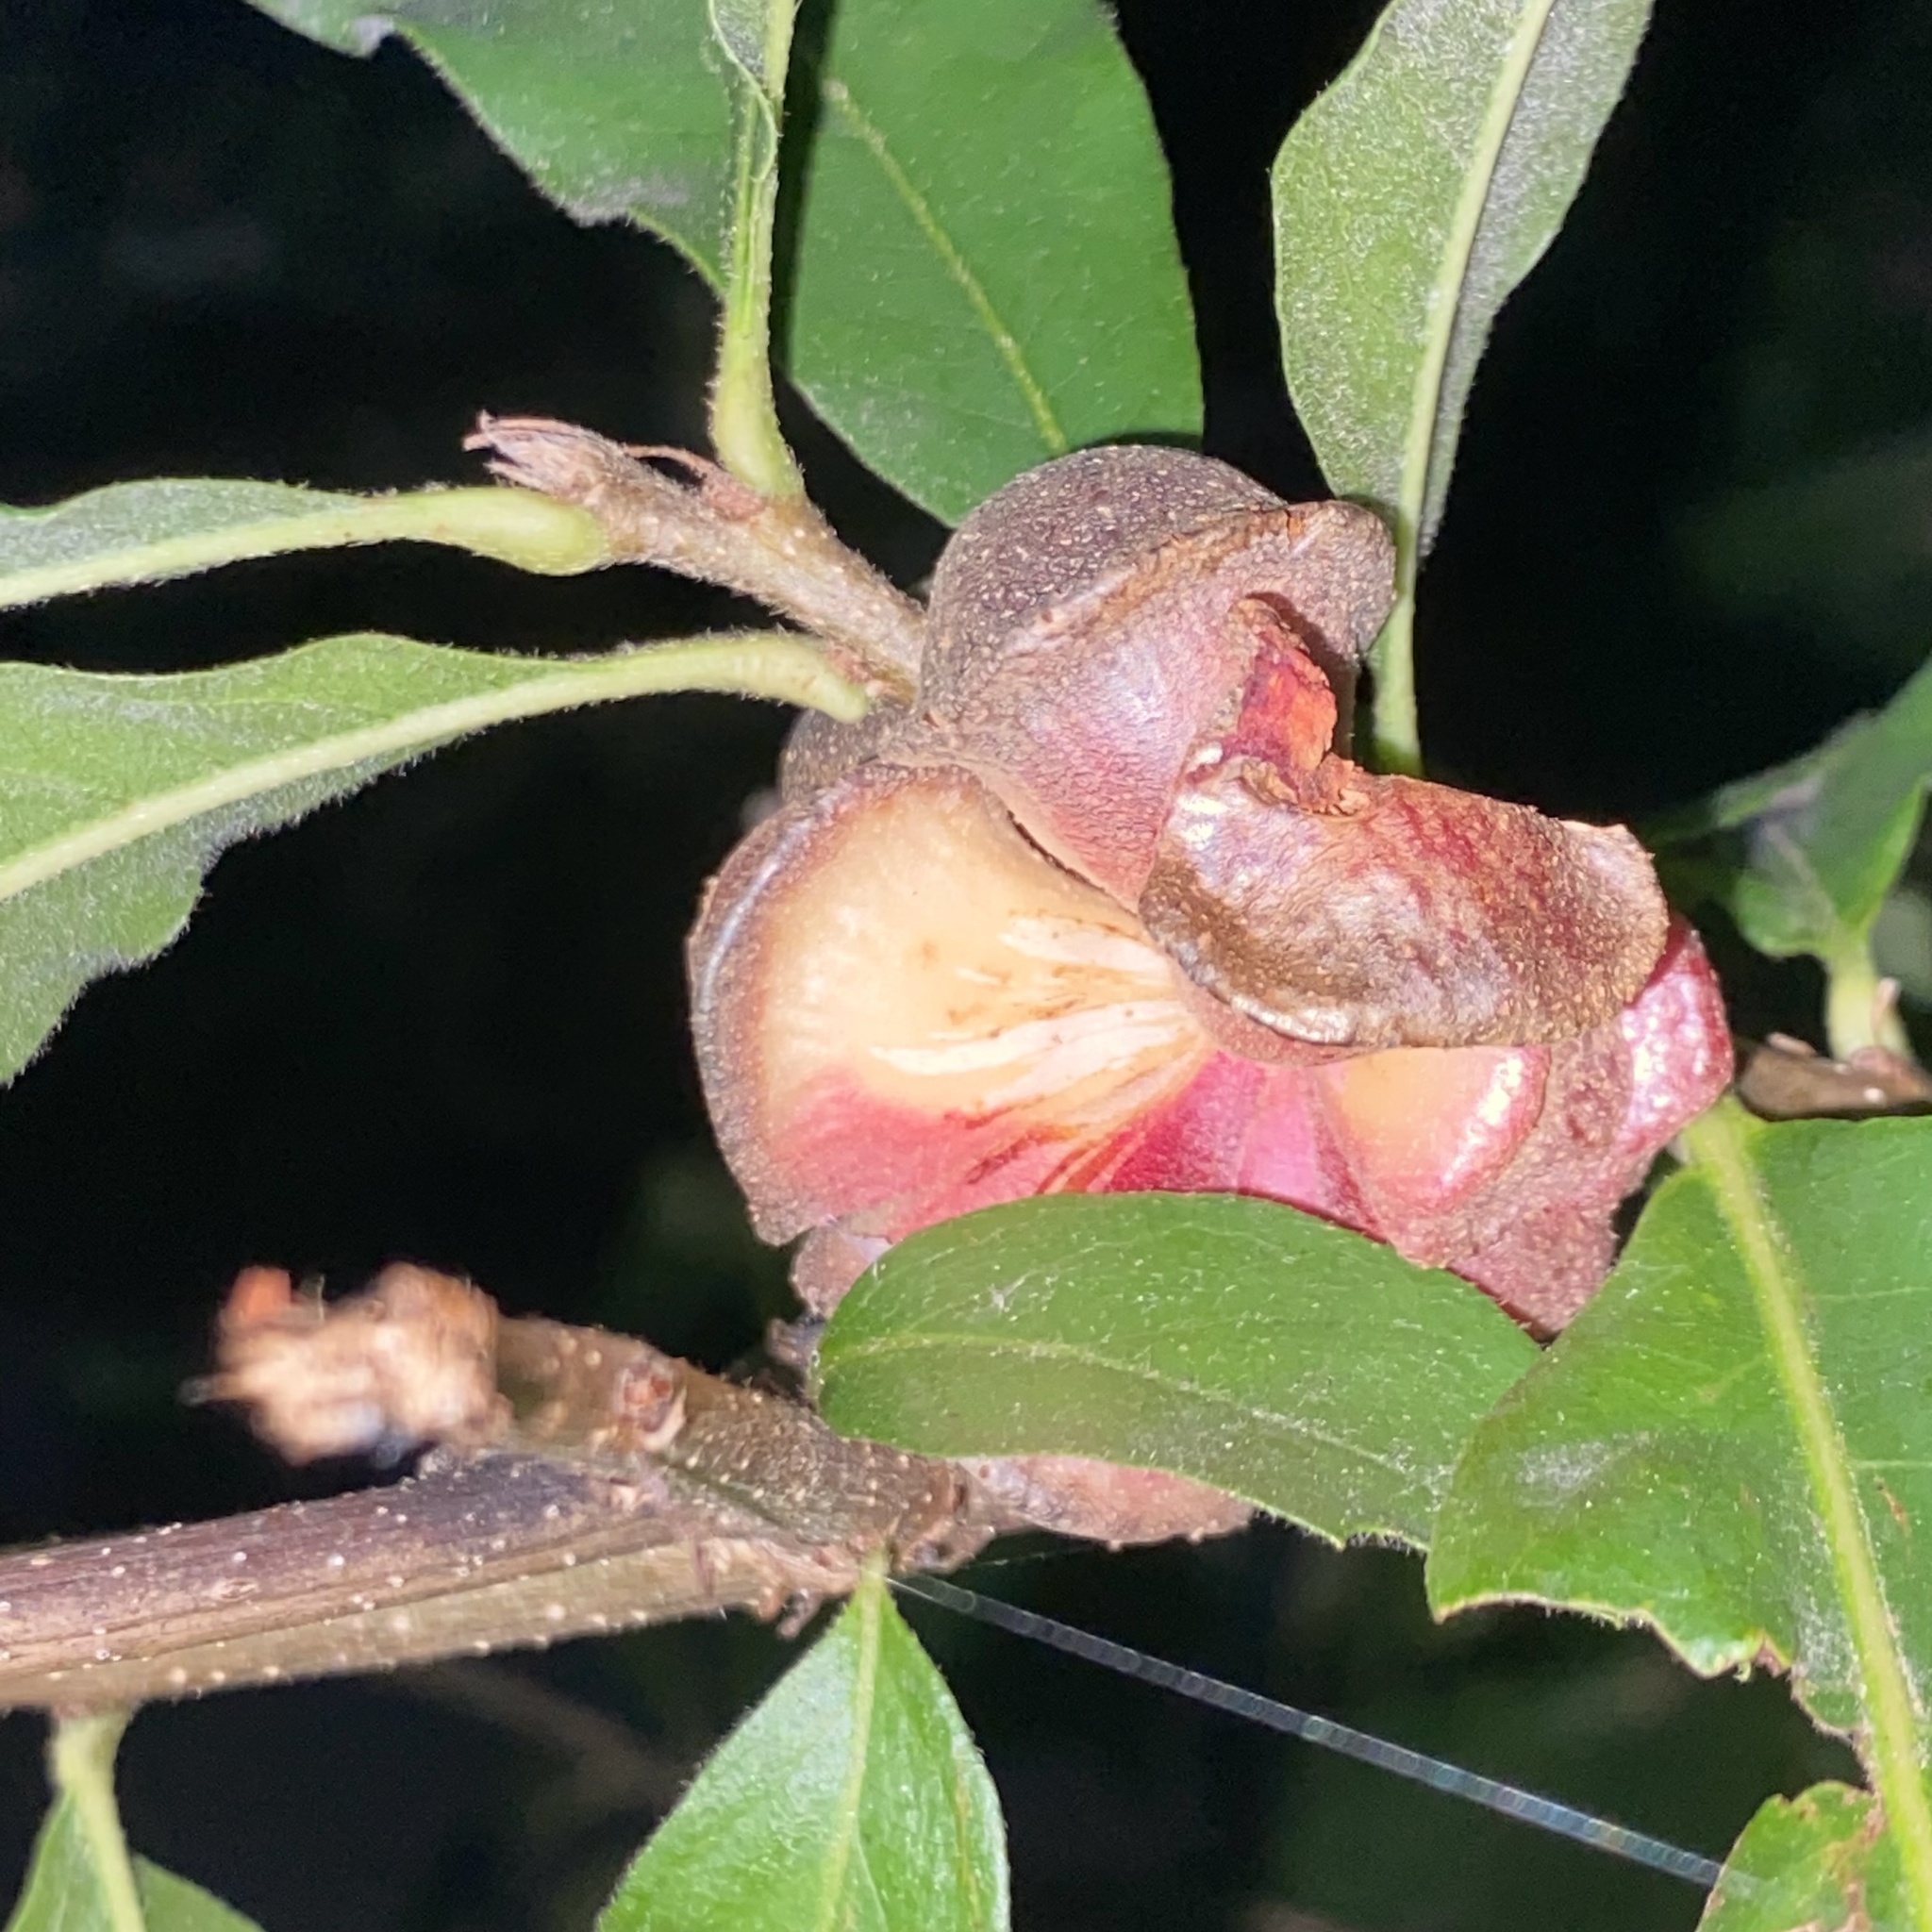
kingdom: Animalia
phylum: Arthropoda
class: Insecta
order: Hymenoptera
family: Cynipidae
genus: Andricus
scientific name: Andricus
